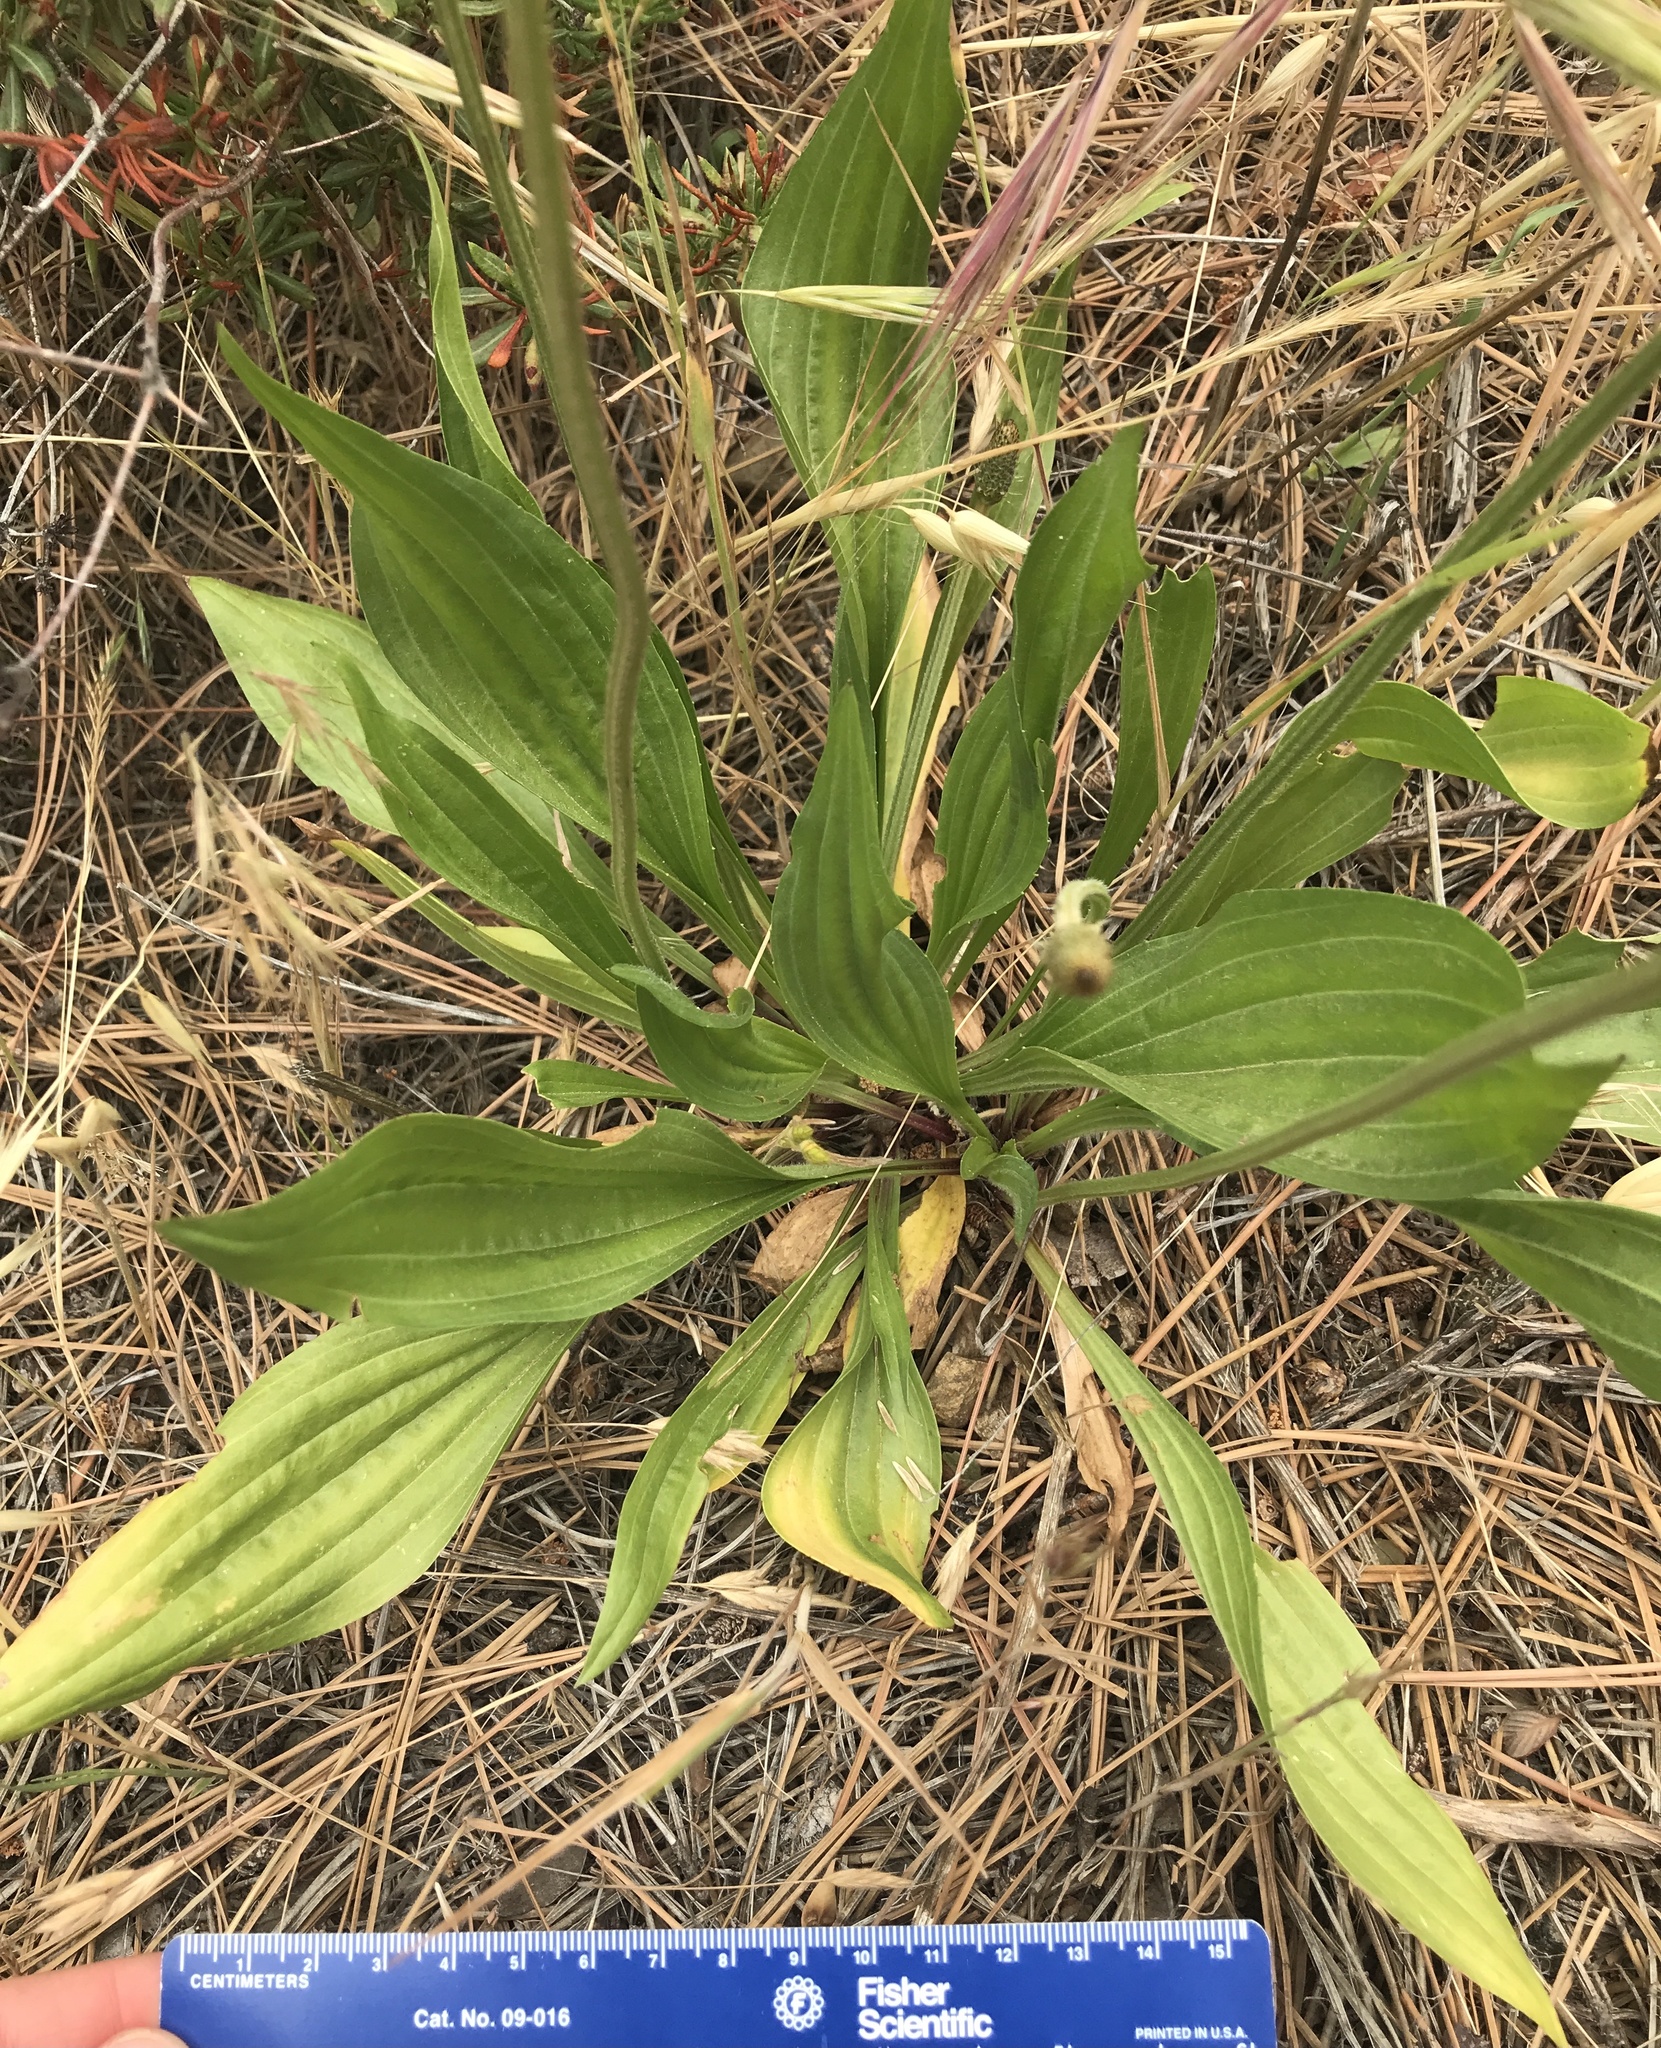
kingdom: Plantae
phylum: Tracheophyta
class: Magnoliopsida
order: Lamiales
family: Plantaginaceae
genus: Plantago
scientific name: Plantago lanceolata
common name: Ribwort plantain
